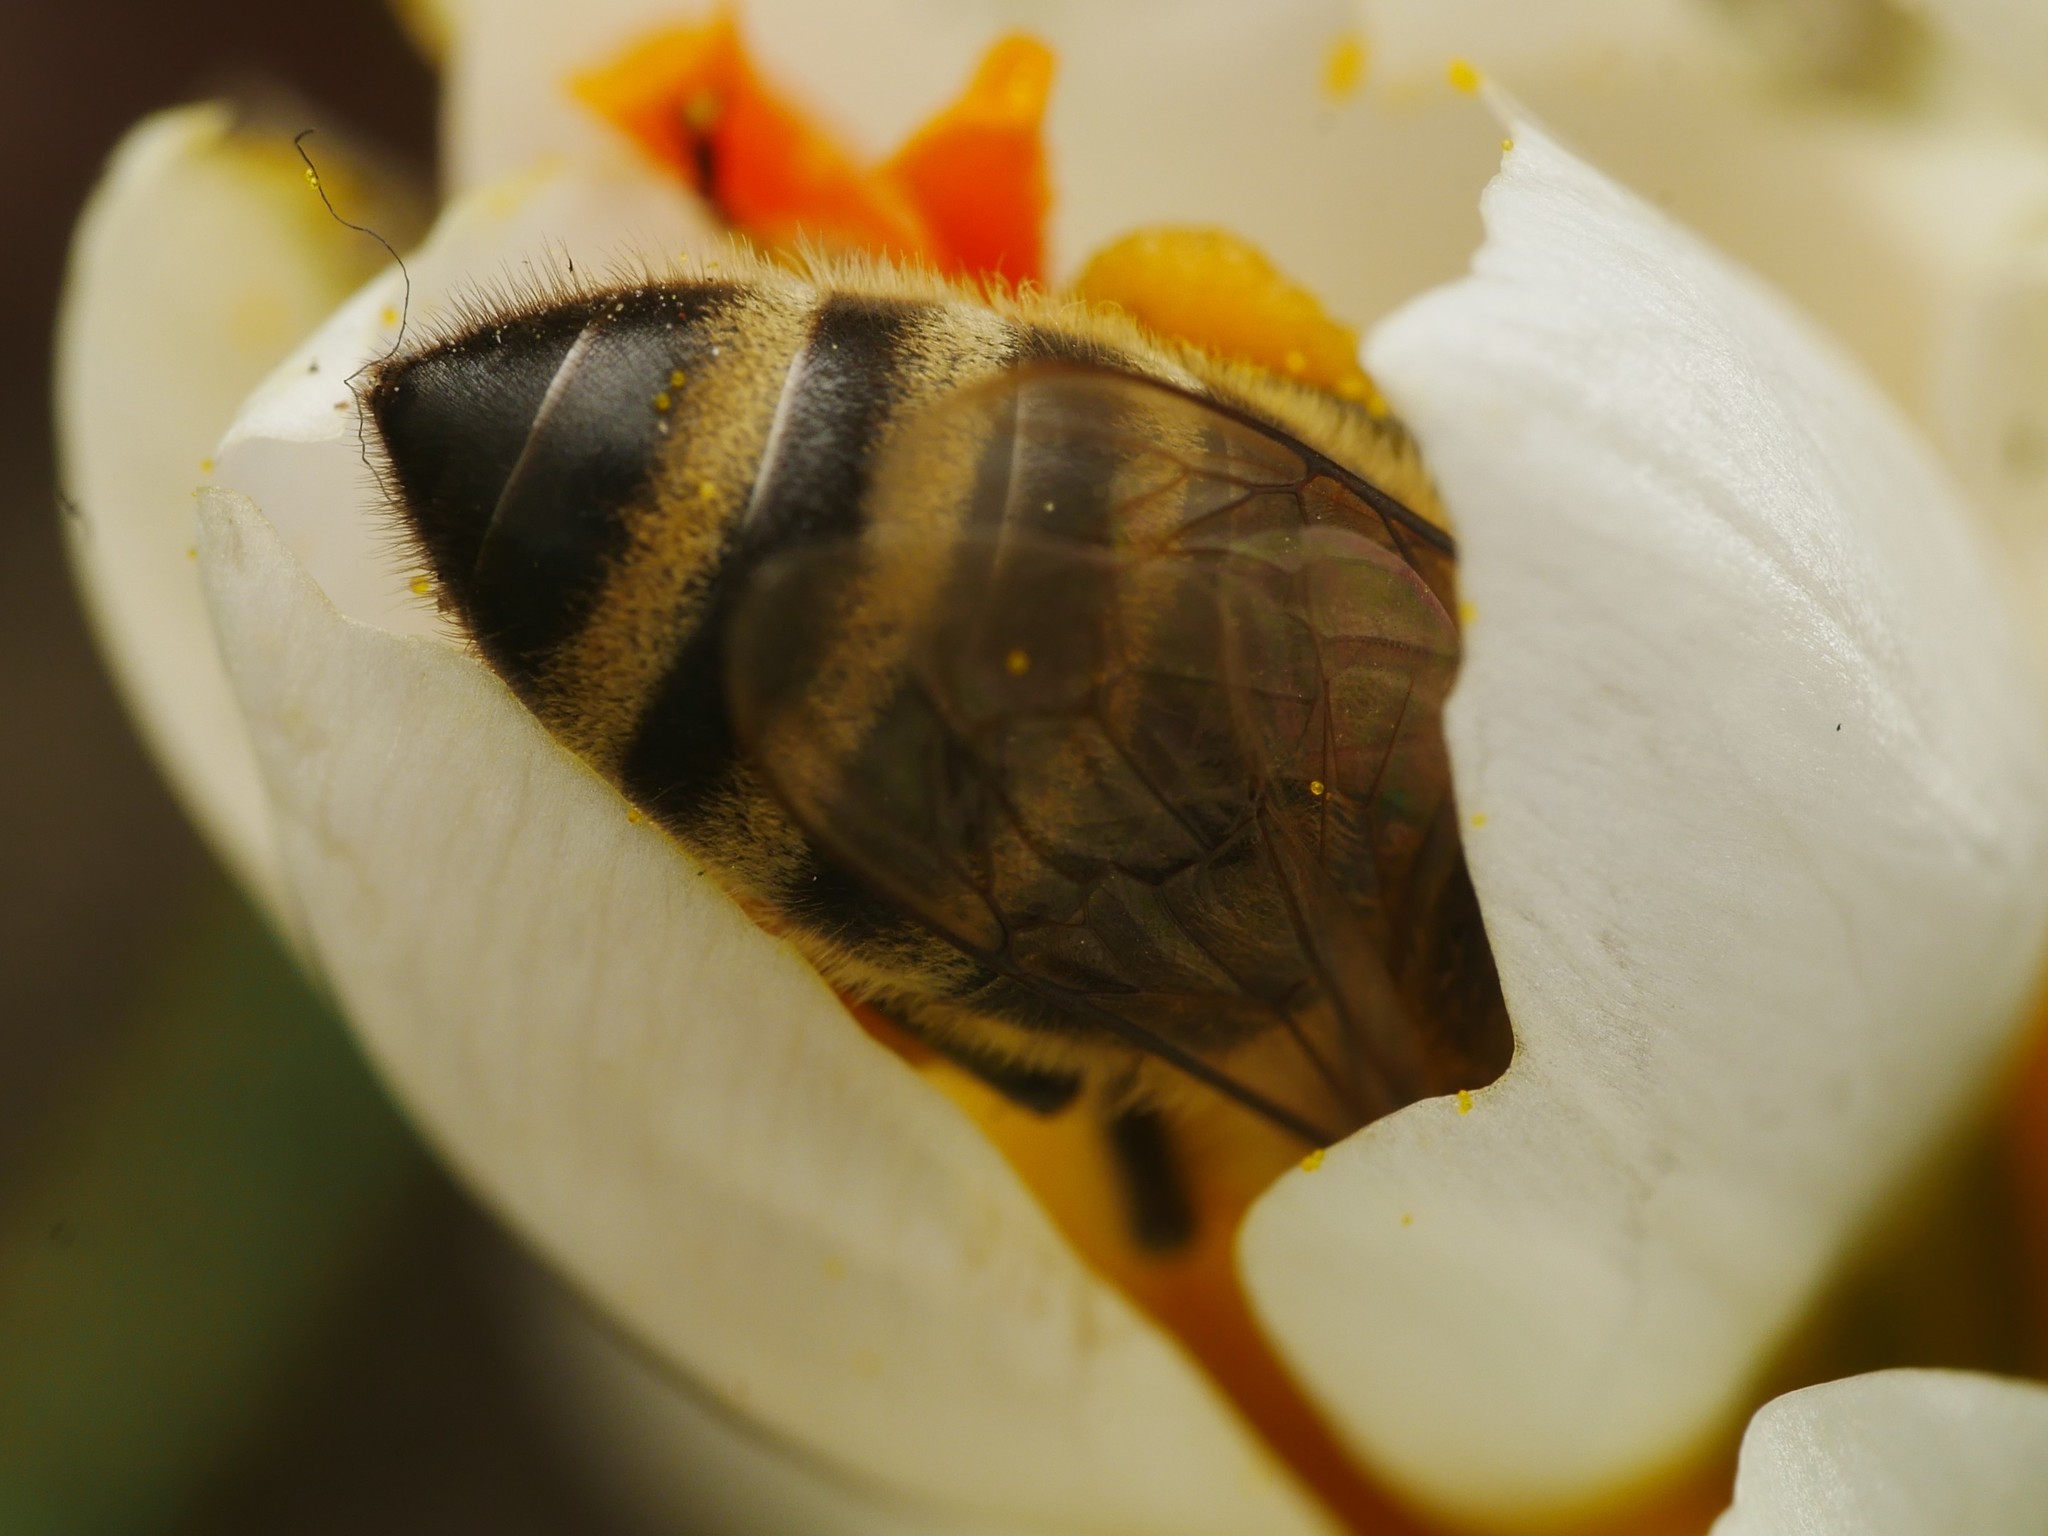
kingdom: Animalia
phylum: Arthropoda
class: Insecta
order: Hymenoptera
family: Apidae
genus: Apis
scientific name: Apis mellifera
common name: Honey bee
